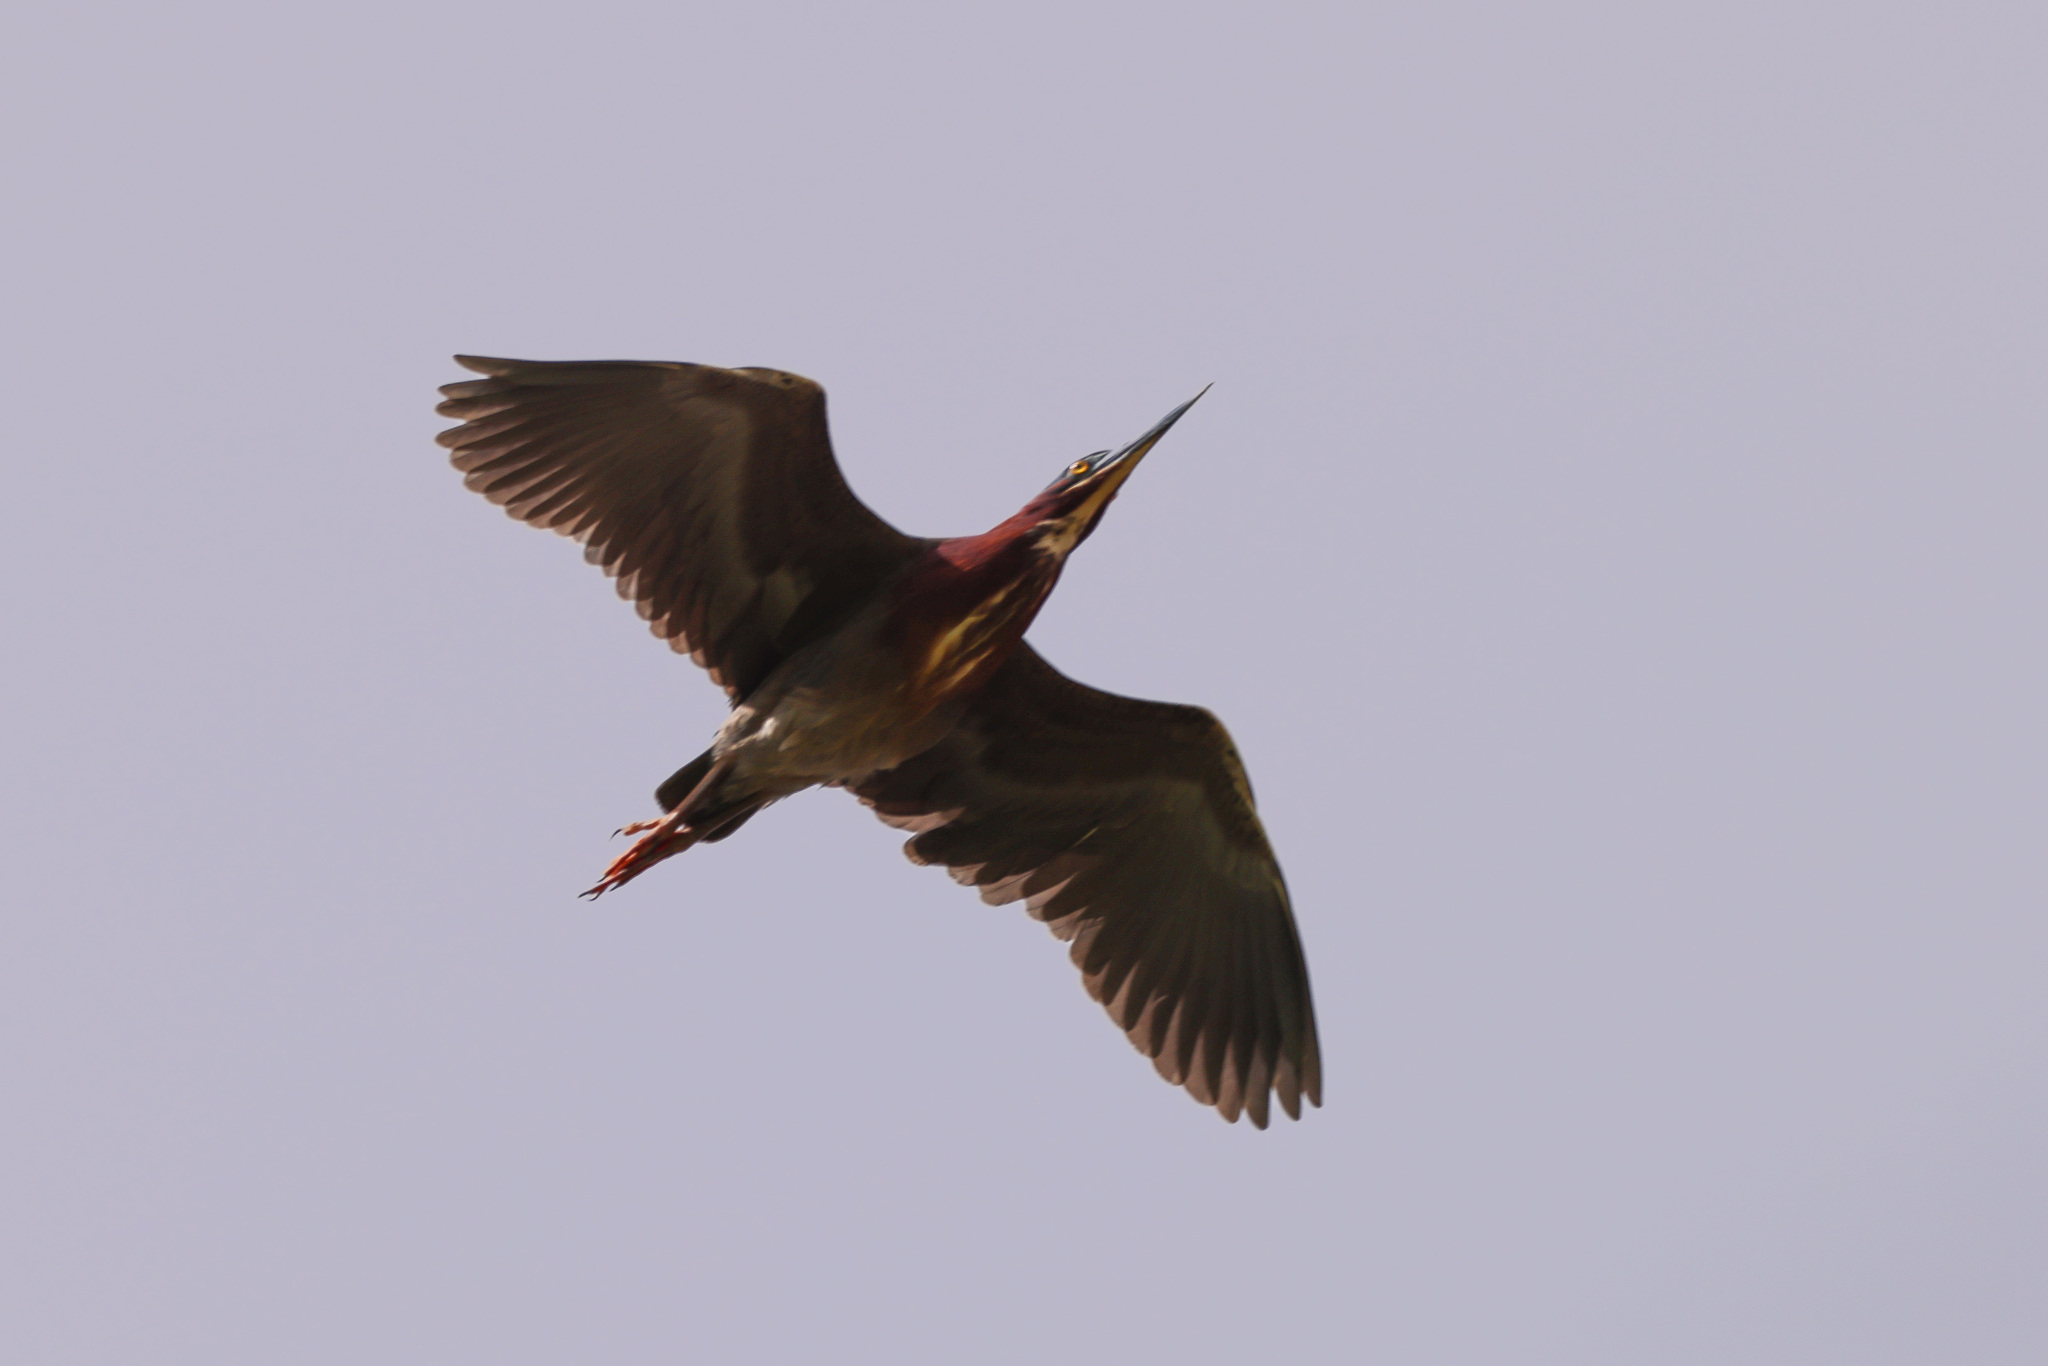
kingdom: Animalia
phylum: Chordata
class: Aves
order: Pelecaniformes
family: Ardeidae
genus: Butorides
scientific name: Butorides virescens
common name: Green heron
